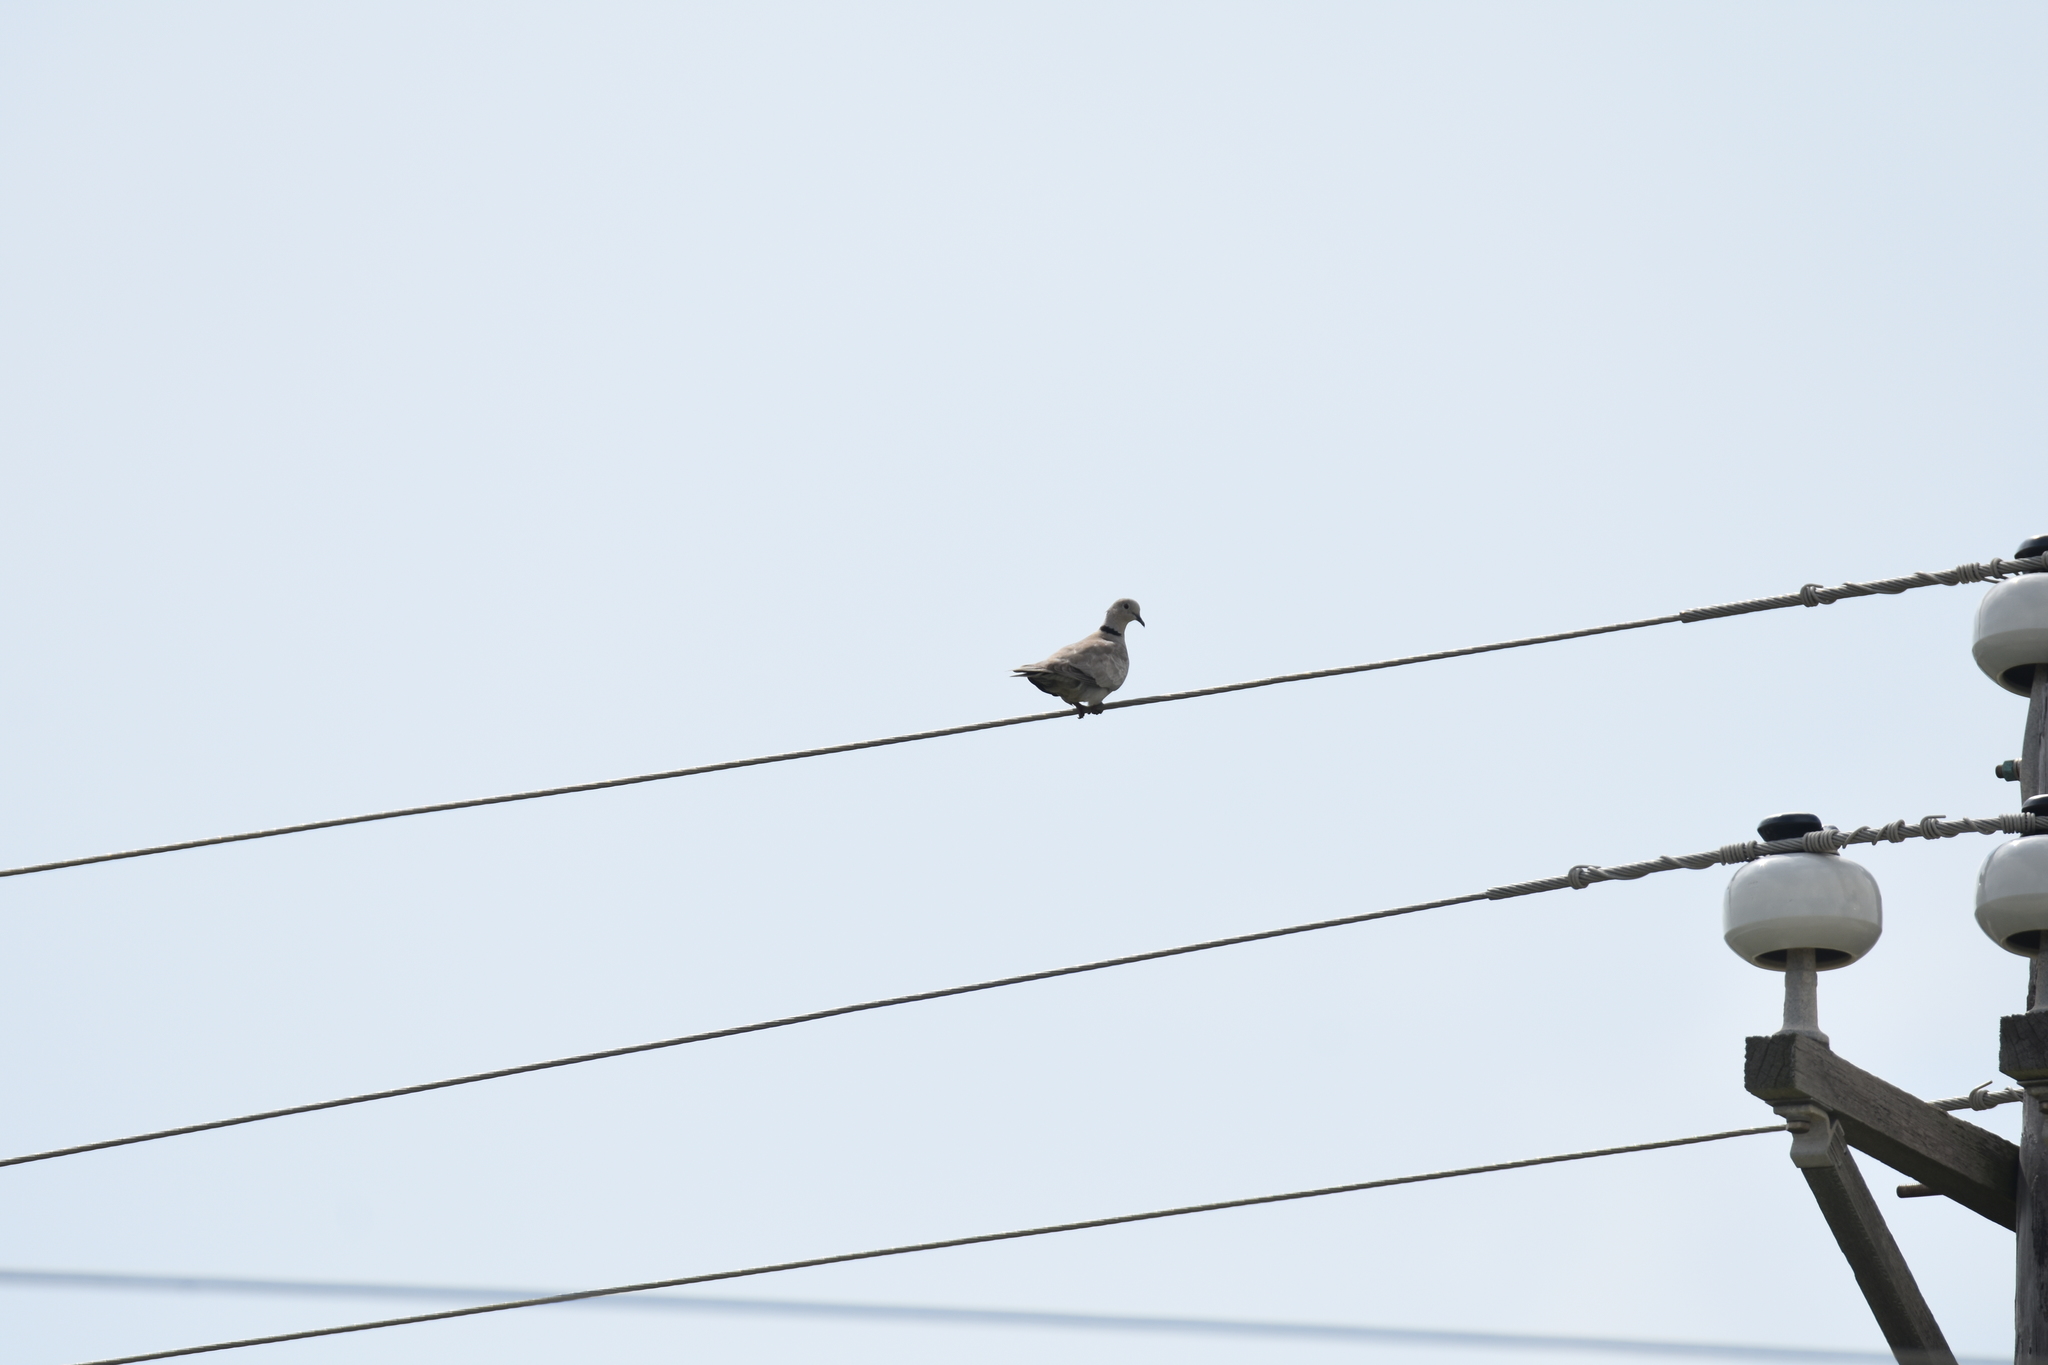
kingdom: Animalia
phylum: Chordata
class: Aves
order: Columbiformes
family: Columbidae
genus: Streptopelia
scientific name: Streptopelia decaocto
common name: Eurasian collared dove
